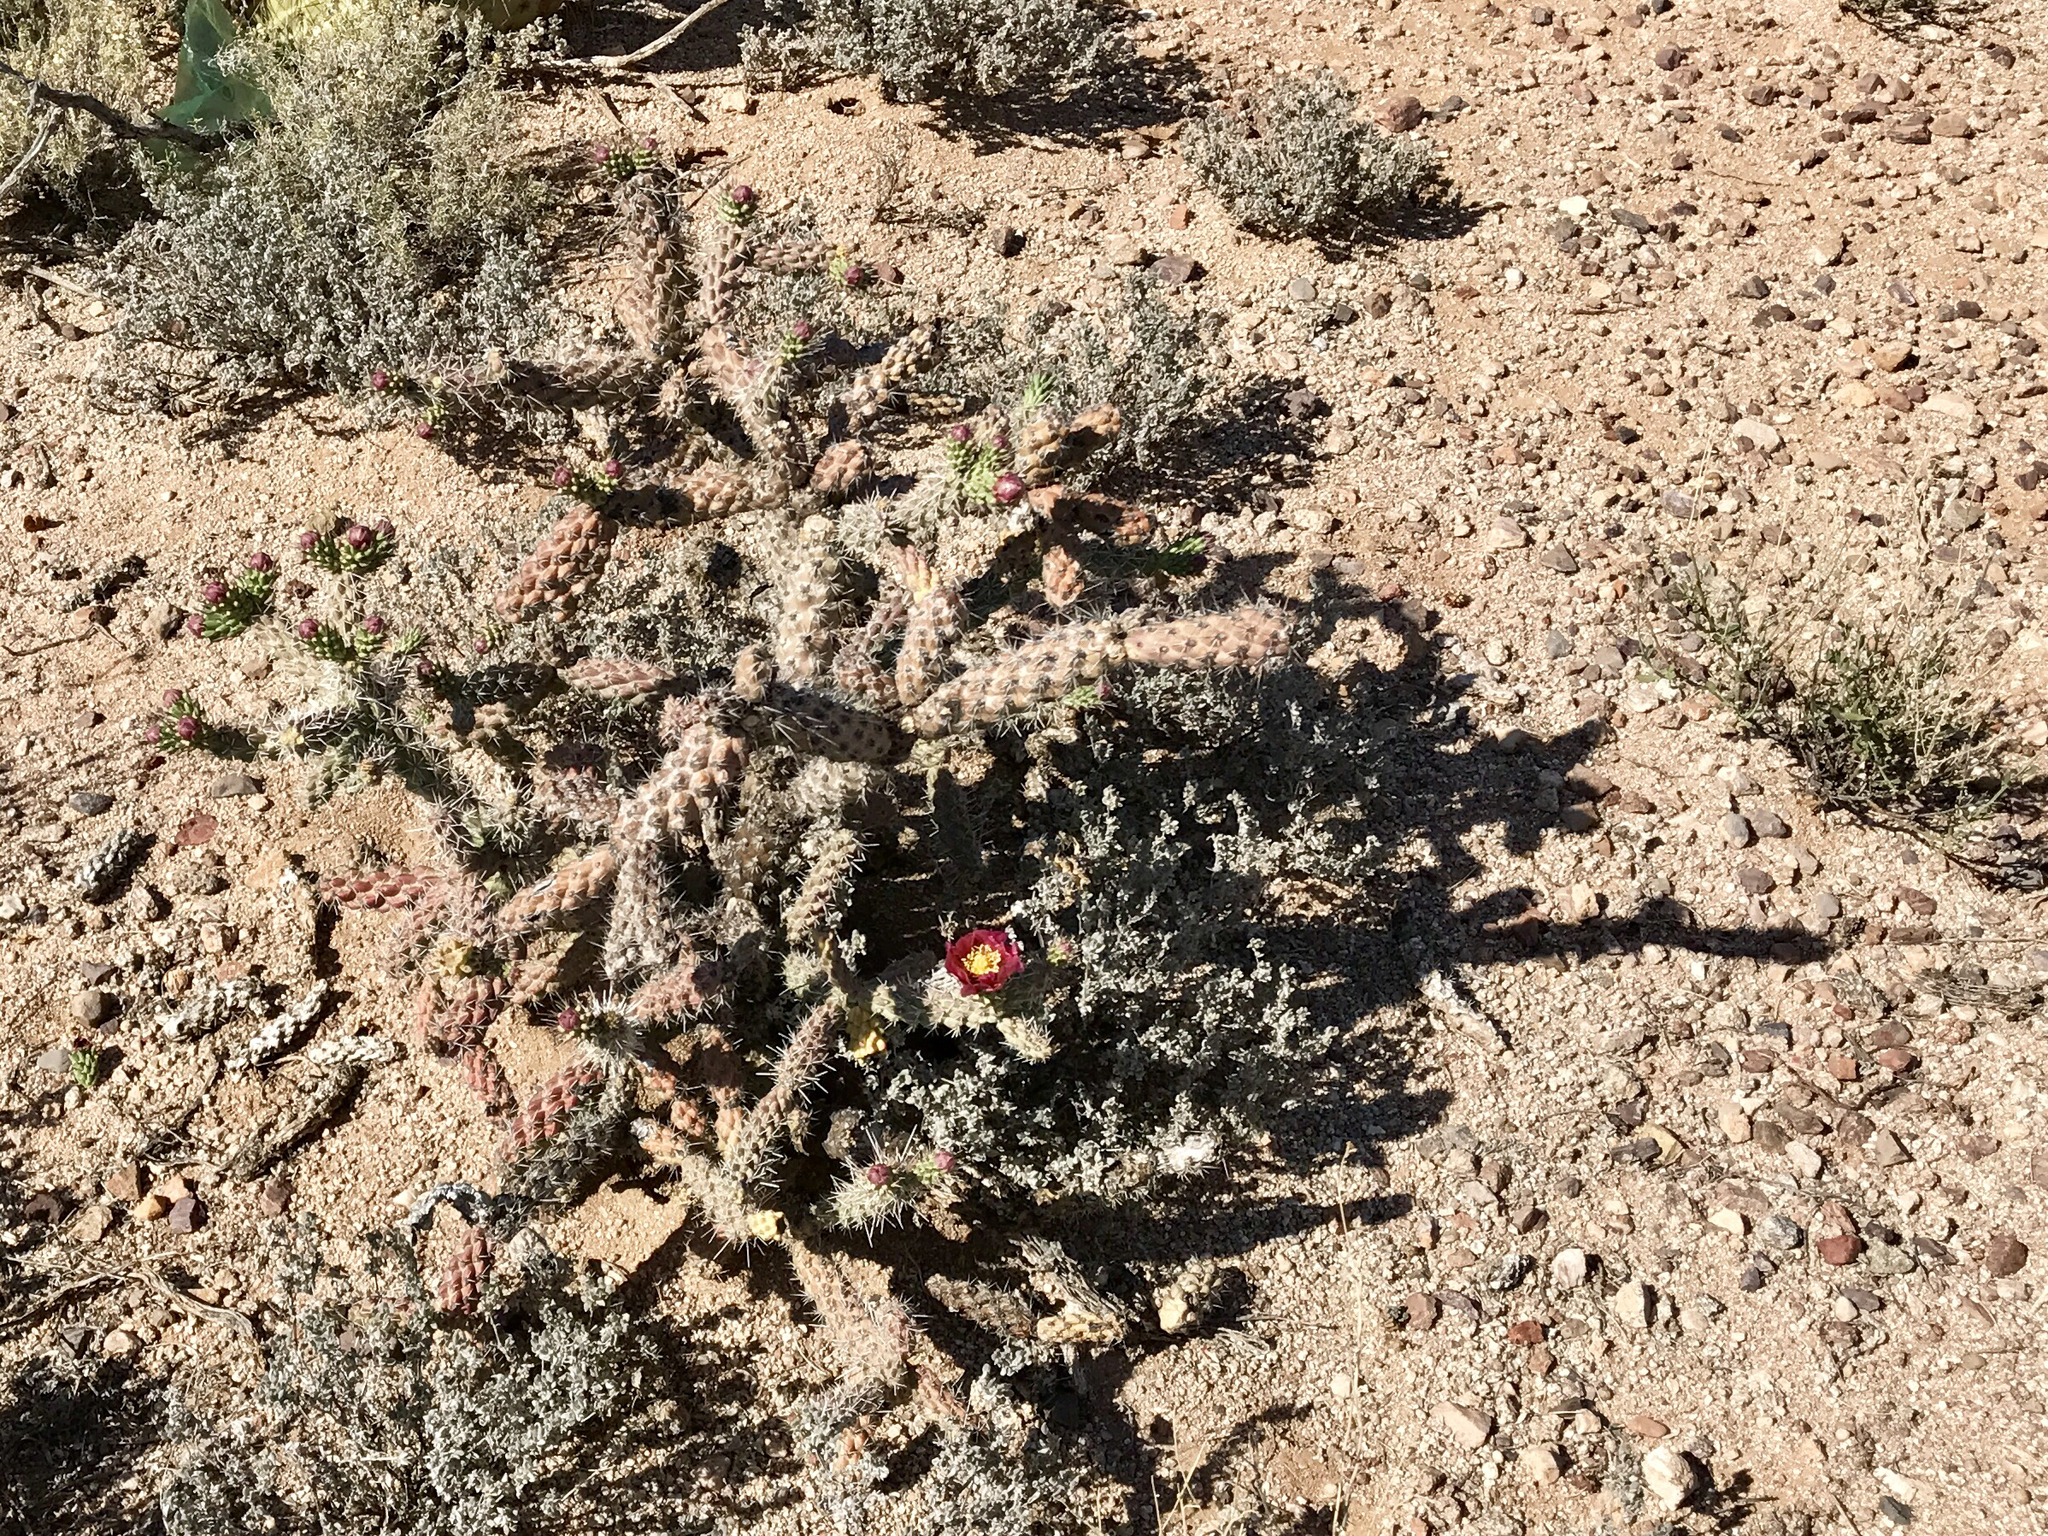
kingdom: Plantae
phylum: Tracheophyta
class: Magnoliopsida
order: Caryophyllales
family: Cactaceae
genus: Cylindropuntia
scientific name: Cylindropuntia imbricata
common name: Candelabrum cactus
